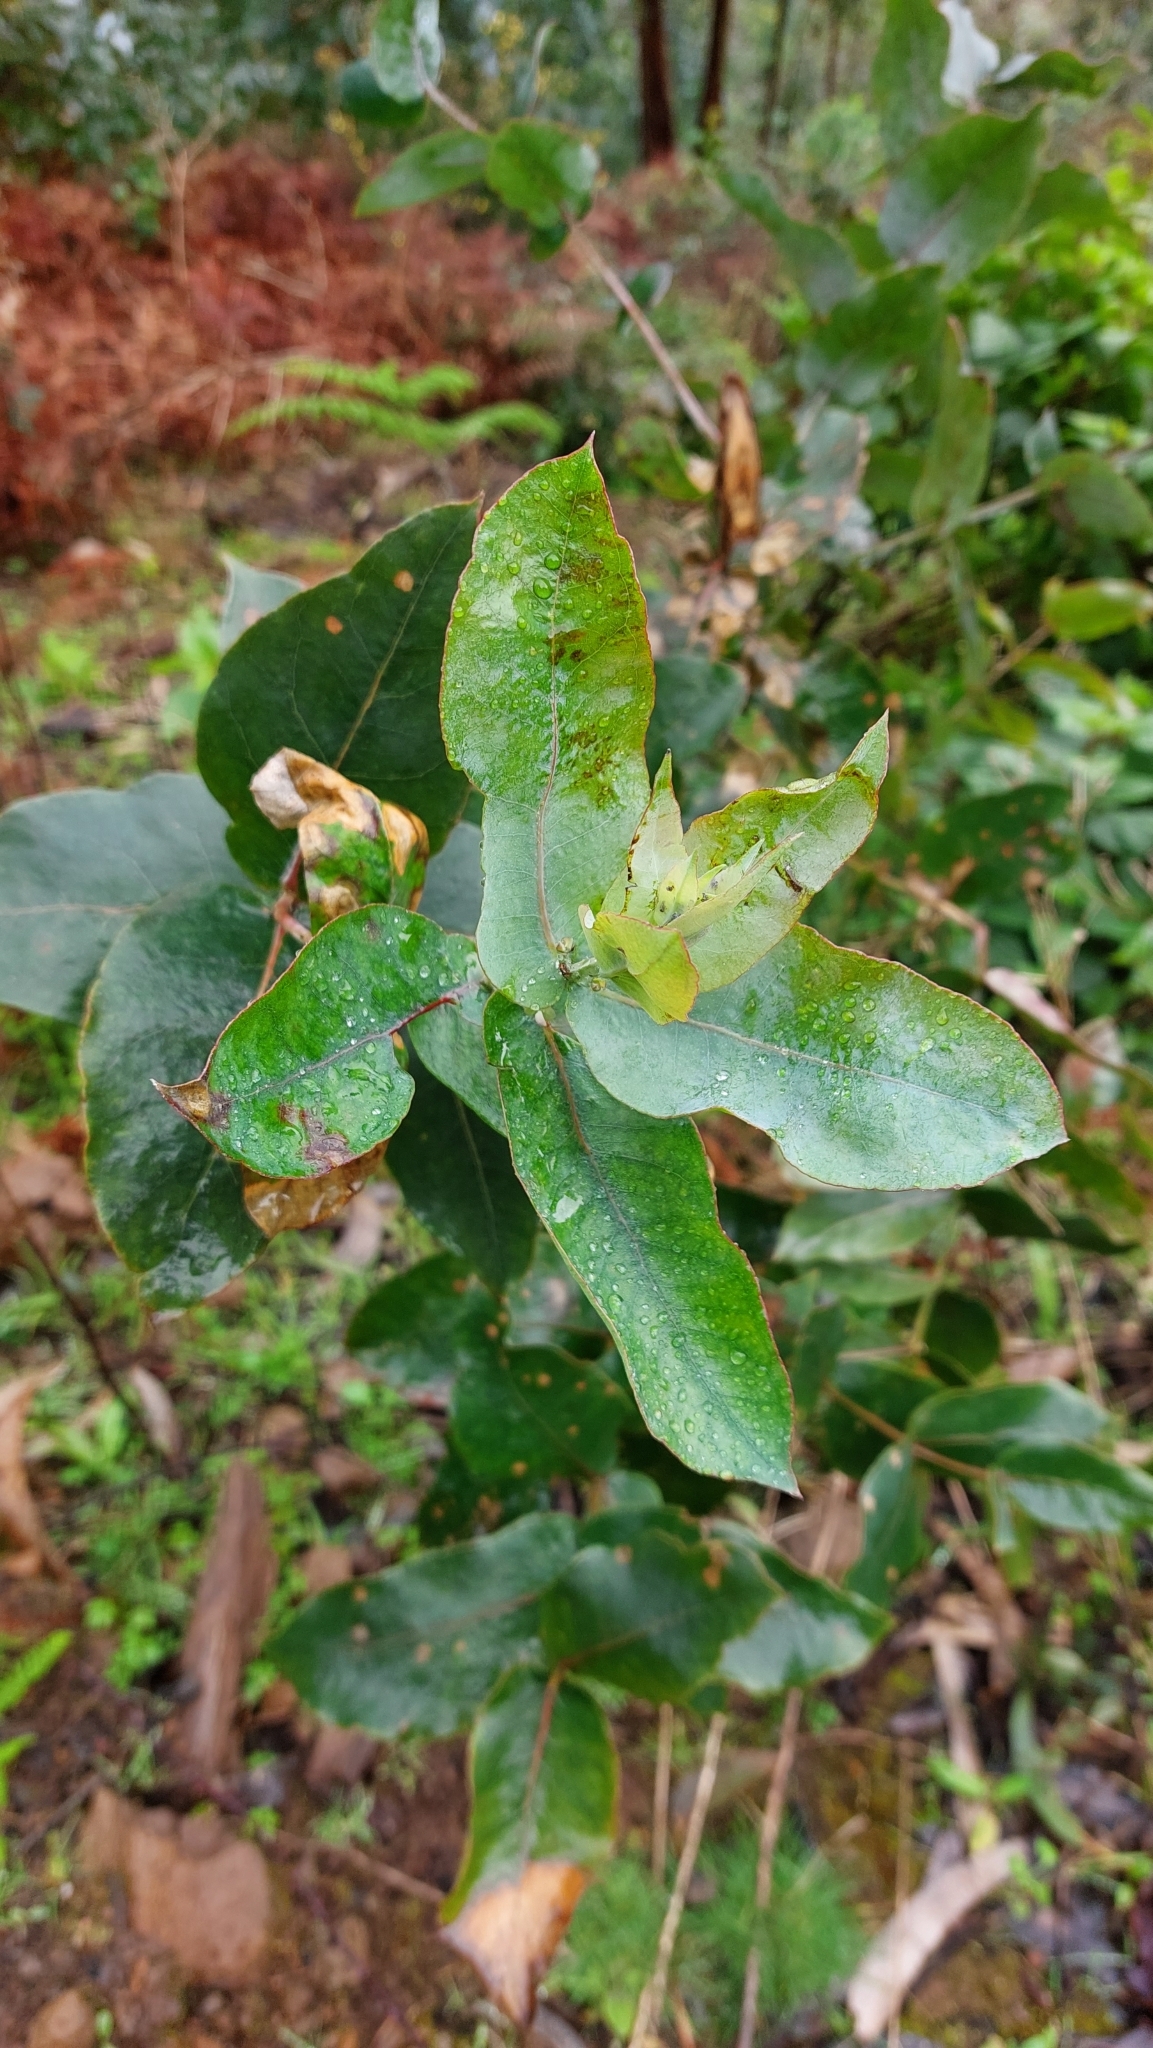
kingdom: Plantae
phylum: Tracheophyta
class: Magnoliopsida
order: Myrtales
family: Myrtaceae
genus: Eucalyptus
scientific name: Eucalyptus globulus
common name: Southern blue-gum
